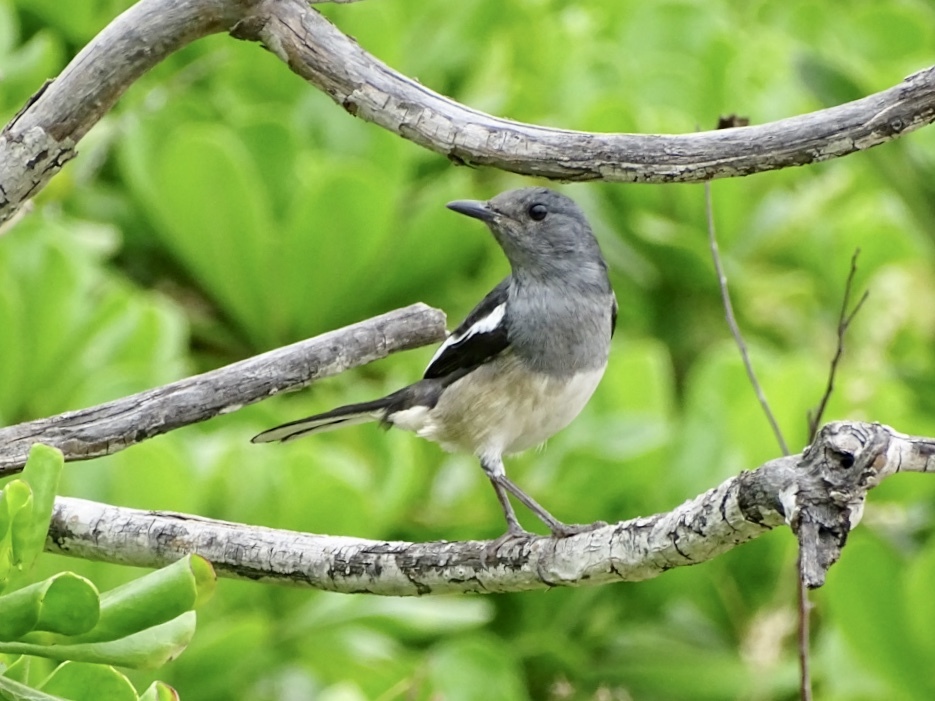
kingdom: Animalia
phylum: Chordata
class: Aves
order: Passeriformes
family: Muscicapidae
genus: Copsychus
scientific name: Copsychus saularis
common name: Oriental magpie-robin
